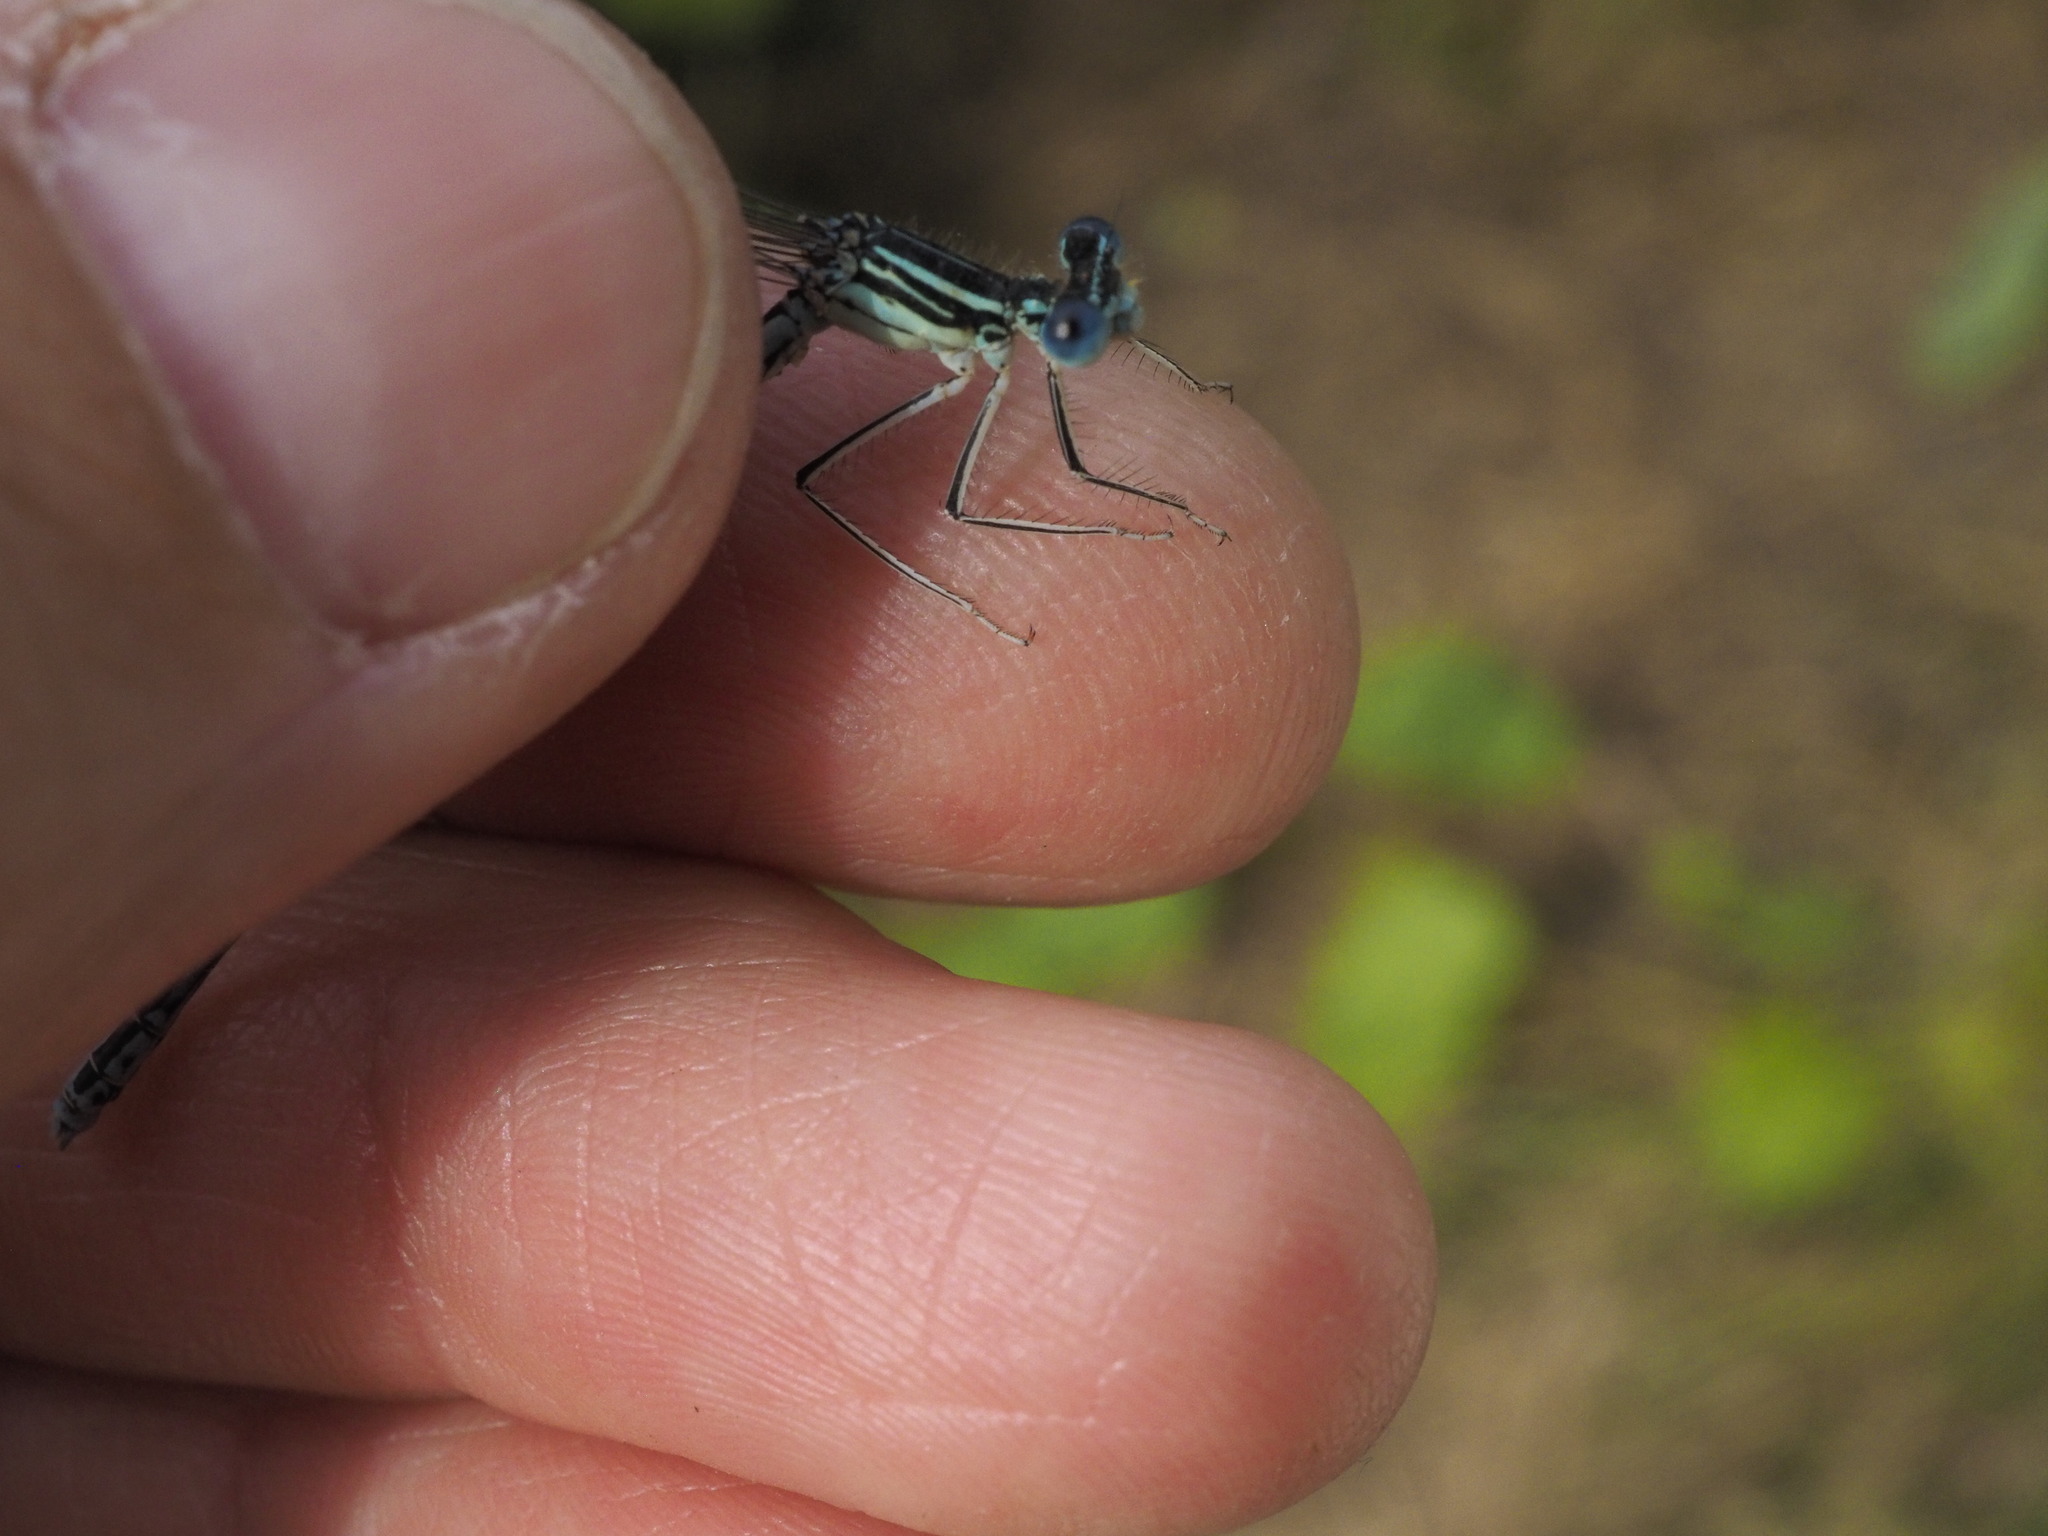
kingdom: Animalia
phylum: Arthropoda
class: Insecta
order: Odonata
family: Platycnemididae
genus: Platycnemis
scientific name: Platycnemis pennipes
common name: White-legged damselfly
